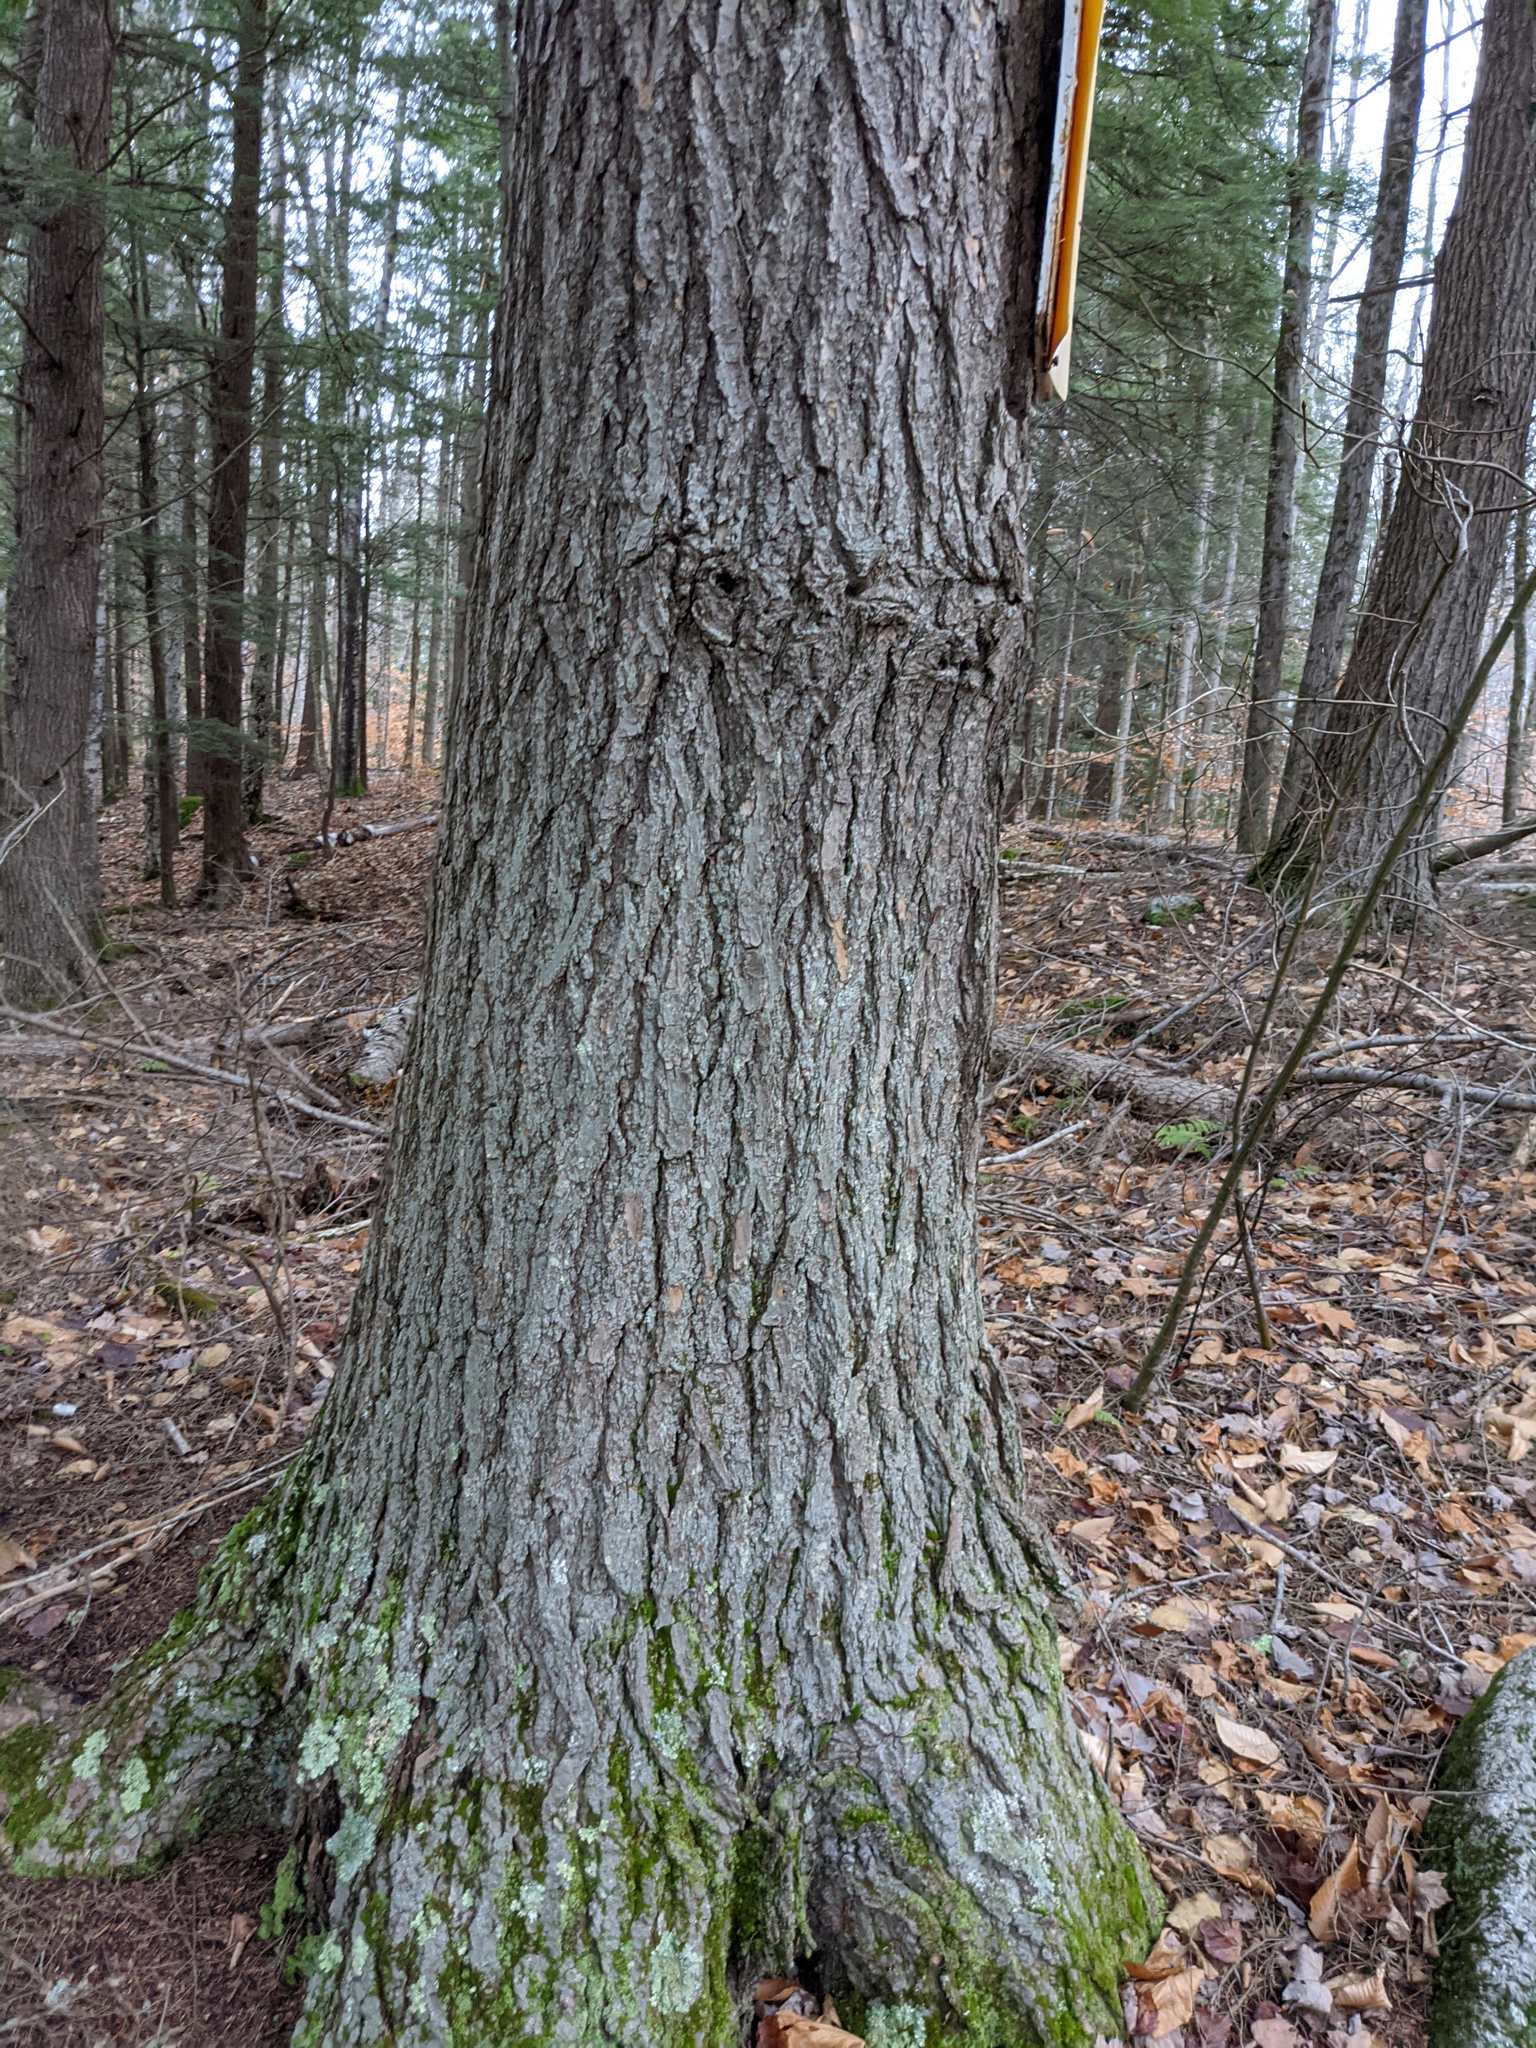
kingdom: Plantae
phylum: Tracheophyta
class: Pinopsida
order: Pinales
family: Pinaceae
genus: Tsuga
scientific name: Tsuga canadensis
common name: Eastern hemlock
